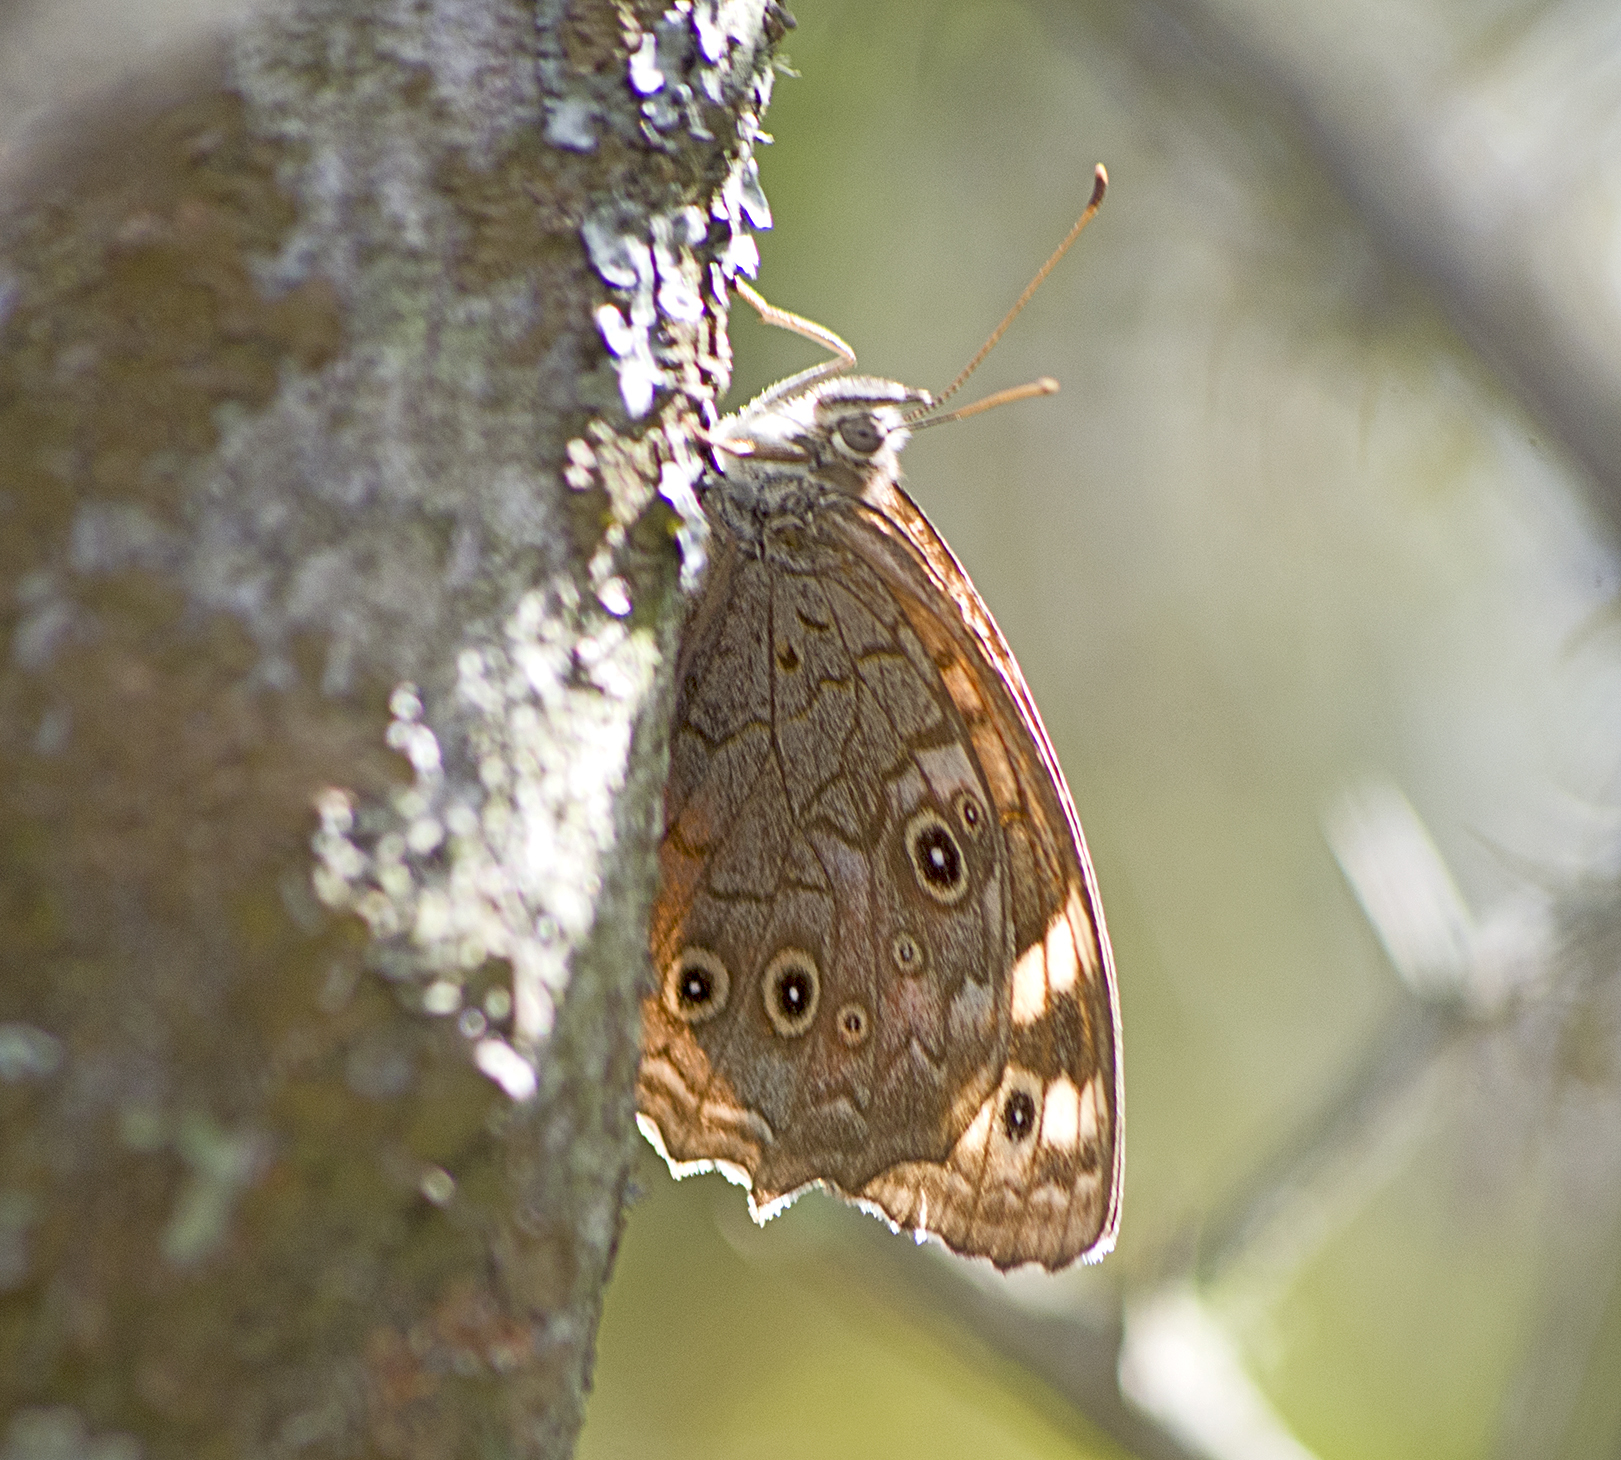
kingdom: Animalia
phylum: Arthropoda
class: Insecta
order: Lepidoptera
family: Nymphalidae
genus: Kirinia
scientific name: Kirinia roxelana
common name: Lattice brown
